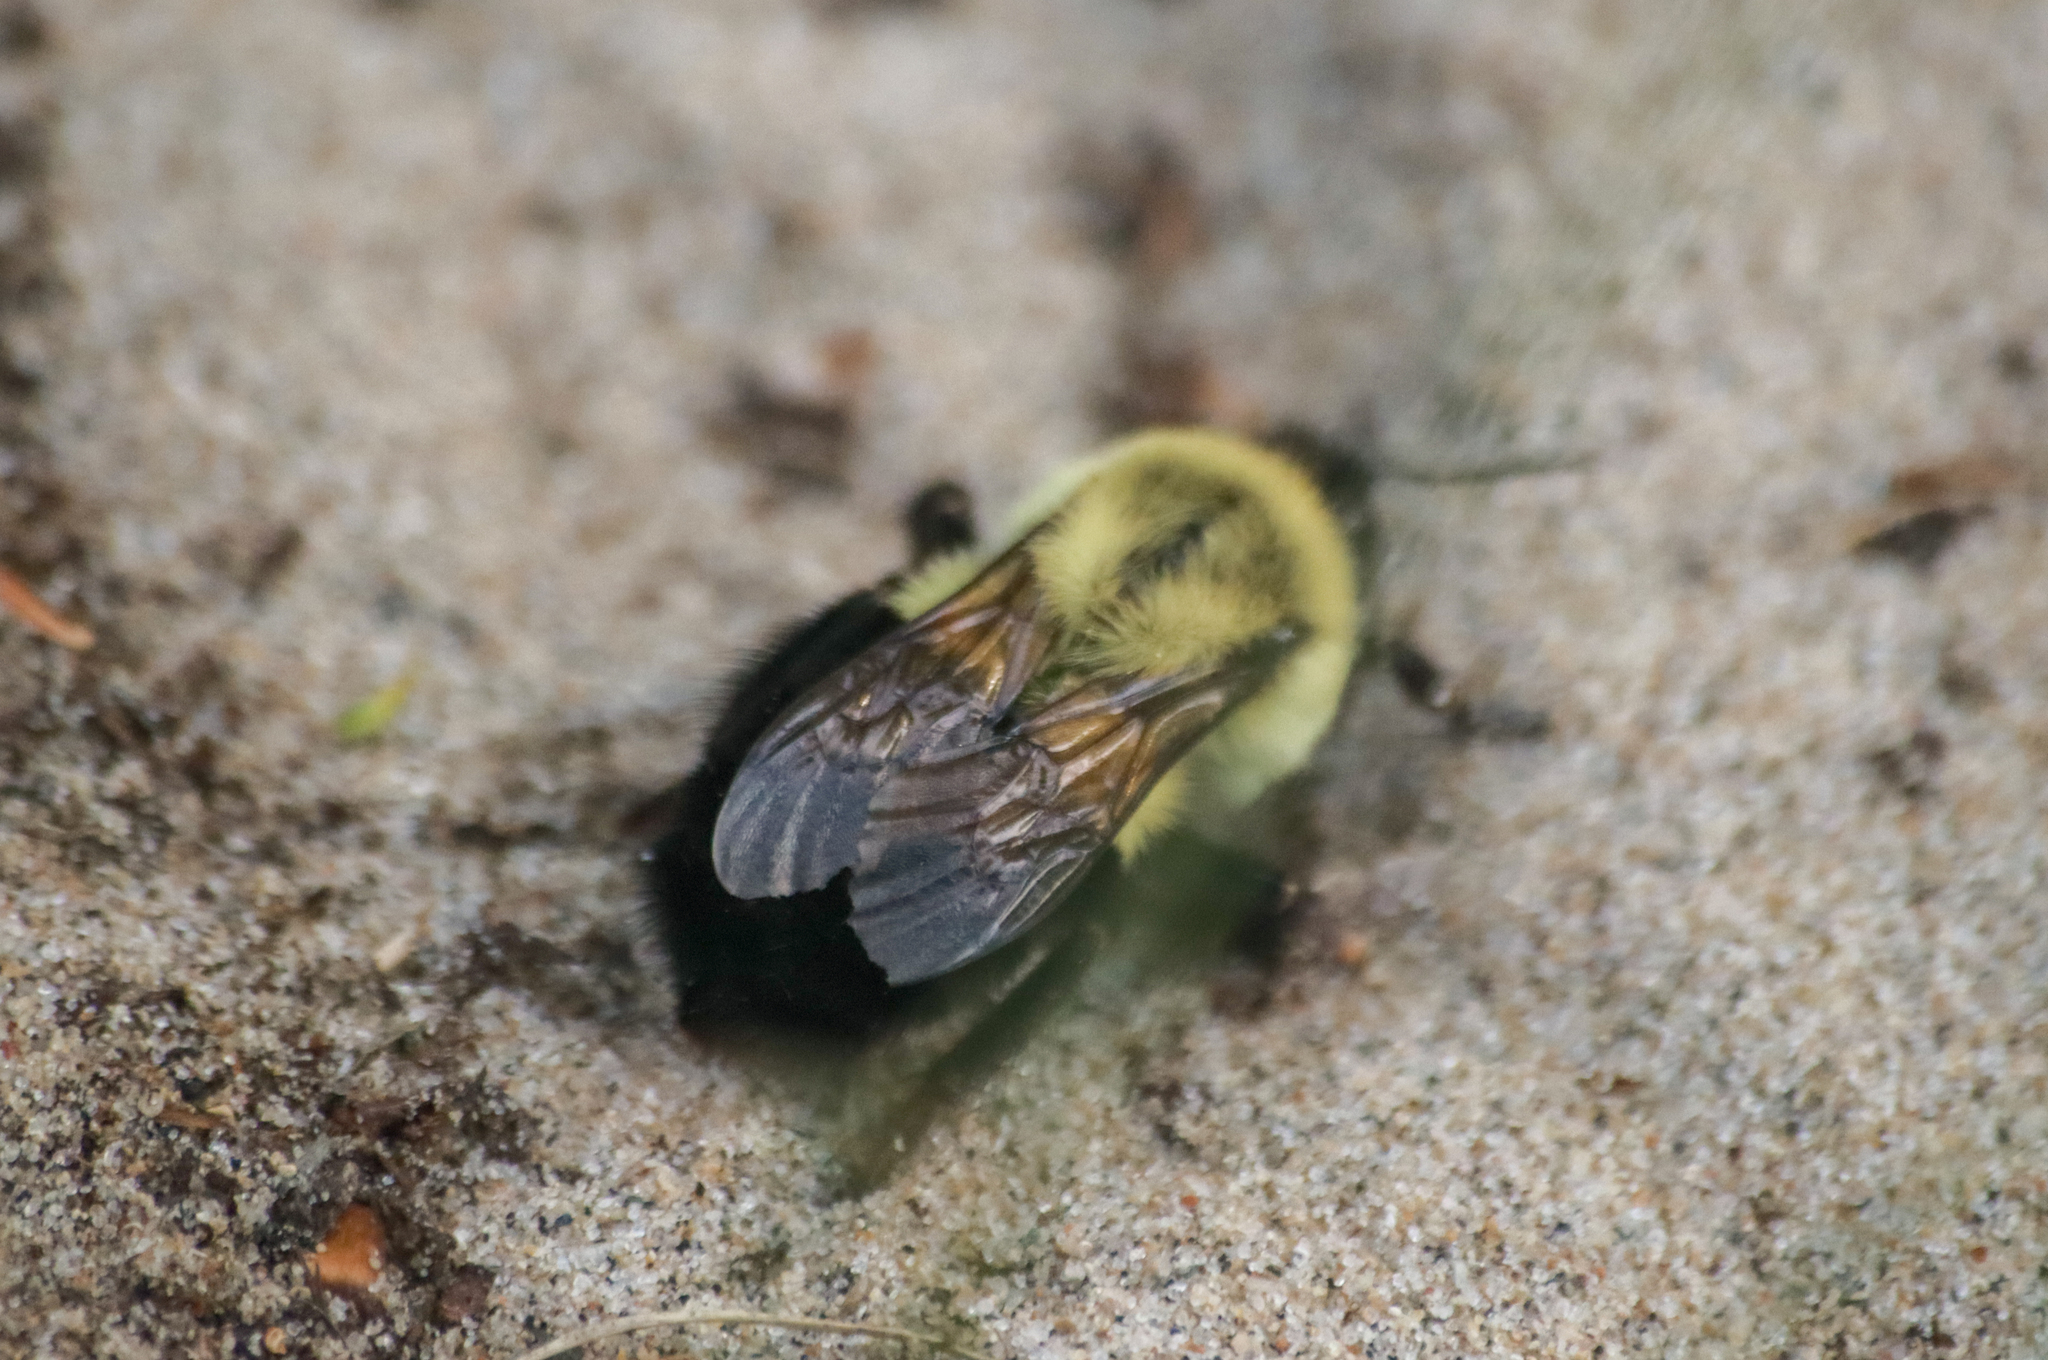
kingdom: Animalia
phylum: Arthropoda
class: Insecta
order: Hymenoptera
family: Apidae
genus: Bombus
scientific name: Bombus impatiens
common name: Common eastern bumble bee
